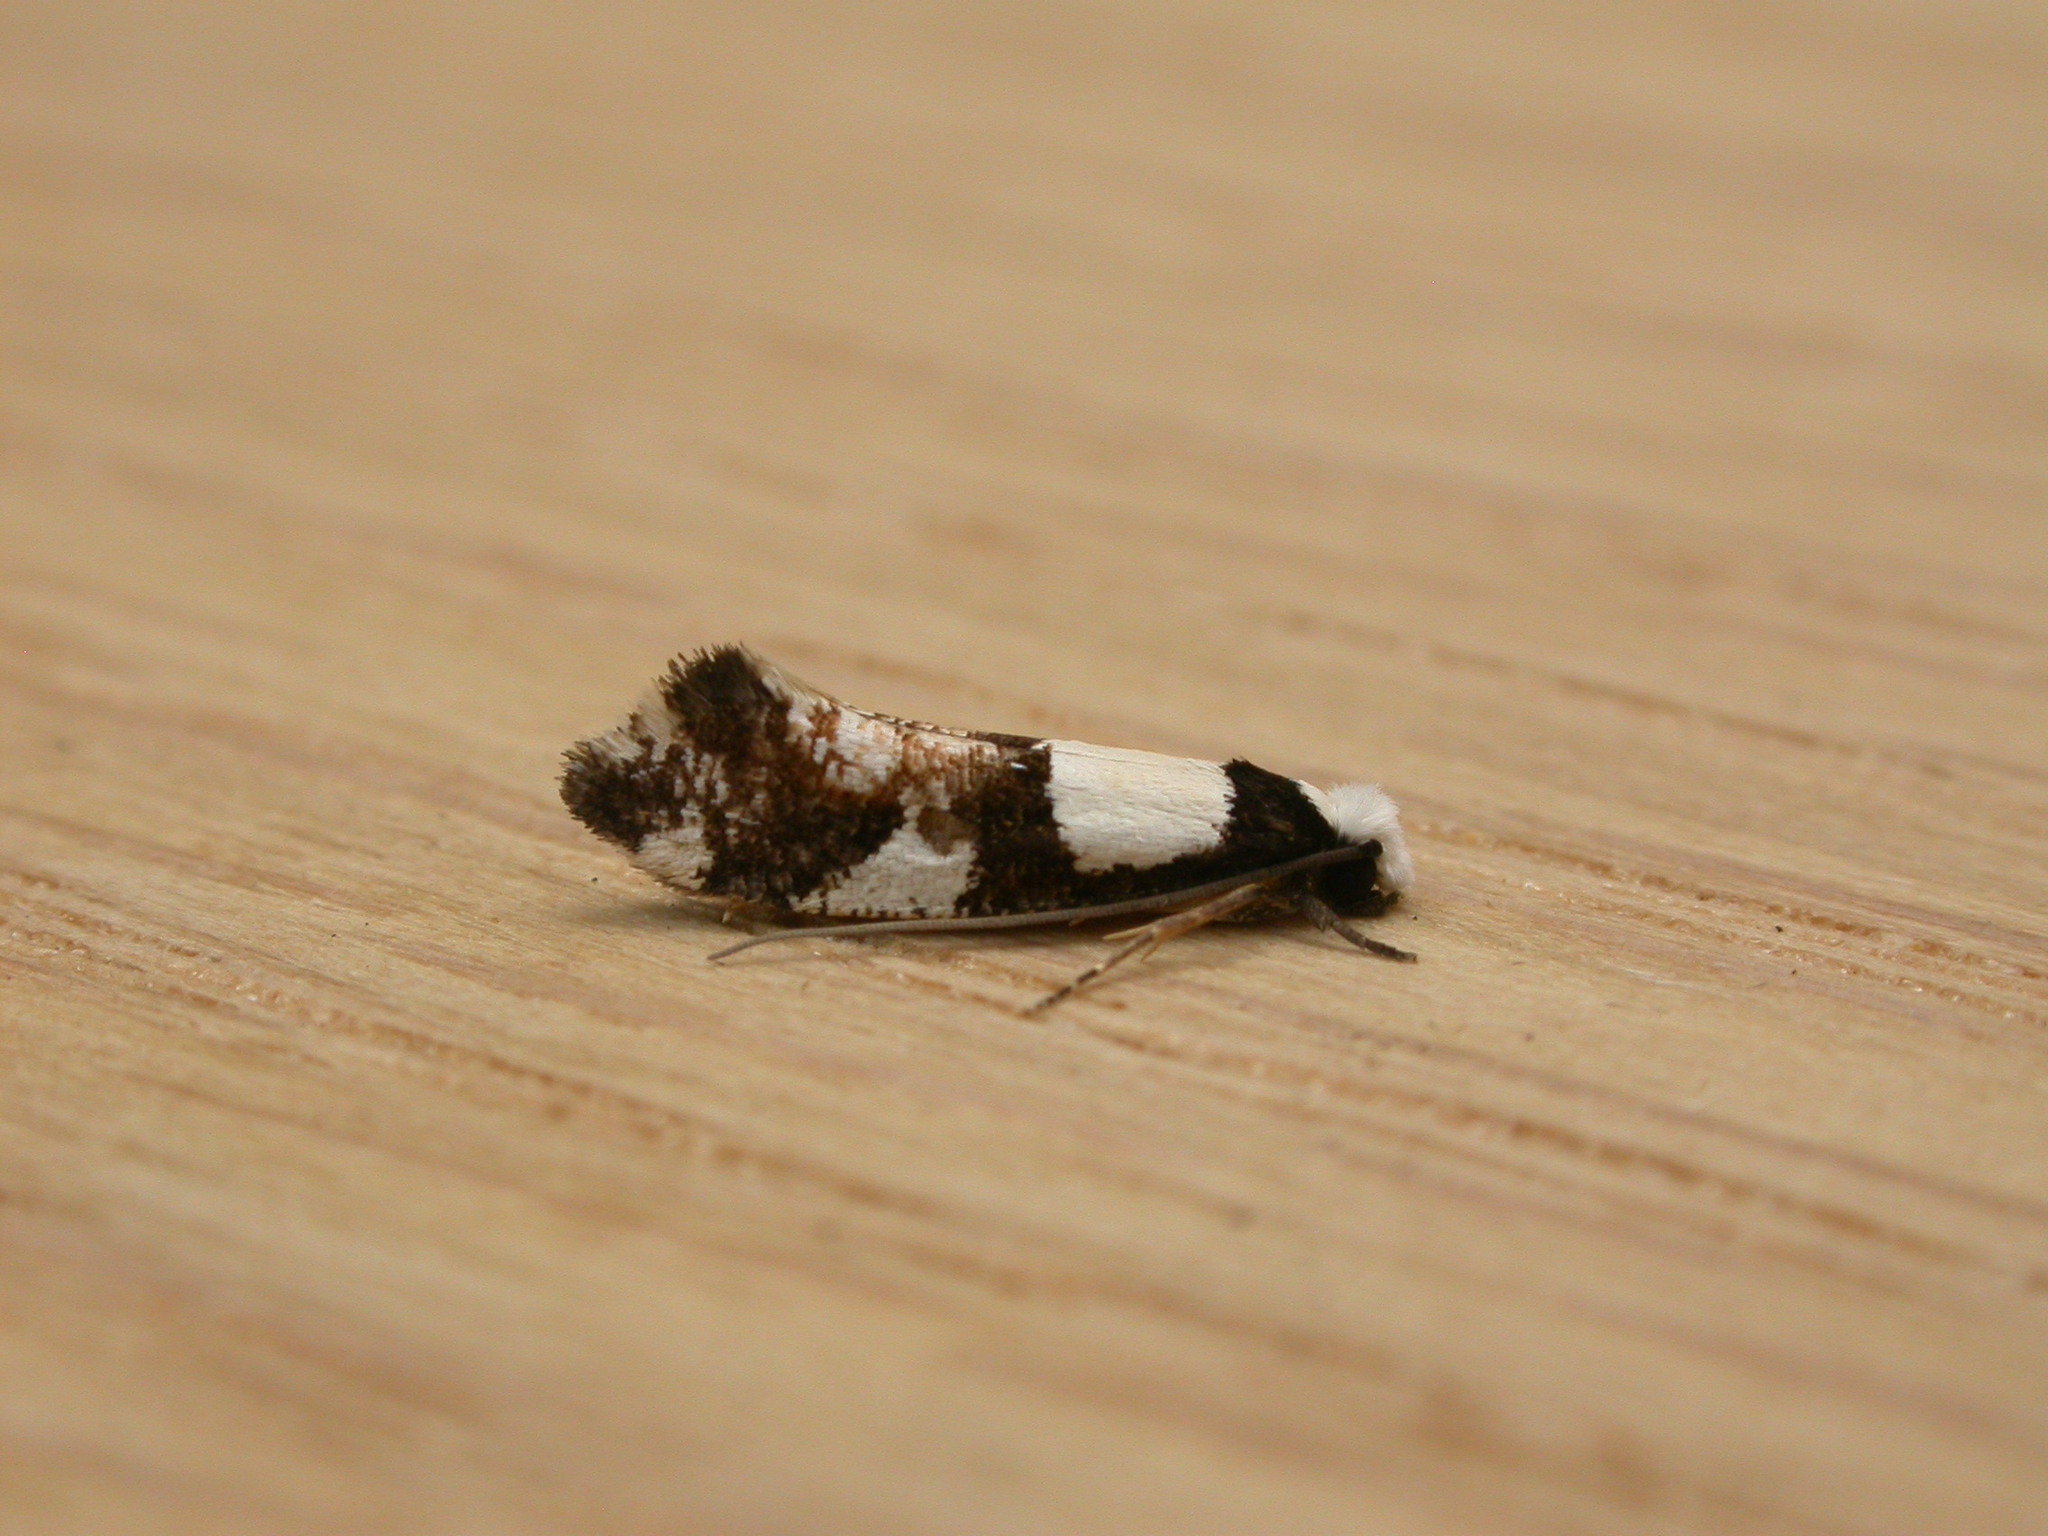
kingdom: Animalia
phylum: Arthropoda
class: Insecta
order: Lepidoptera
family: Tineidae
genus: Monopis
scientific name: Monopis icterogastra
